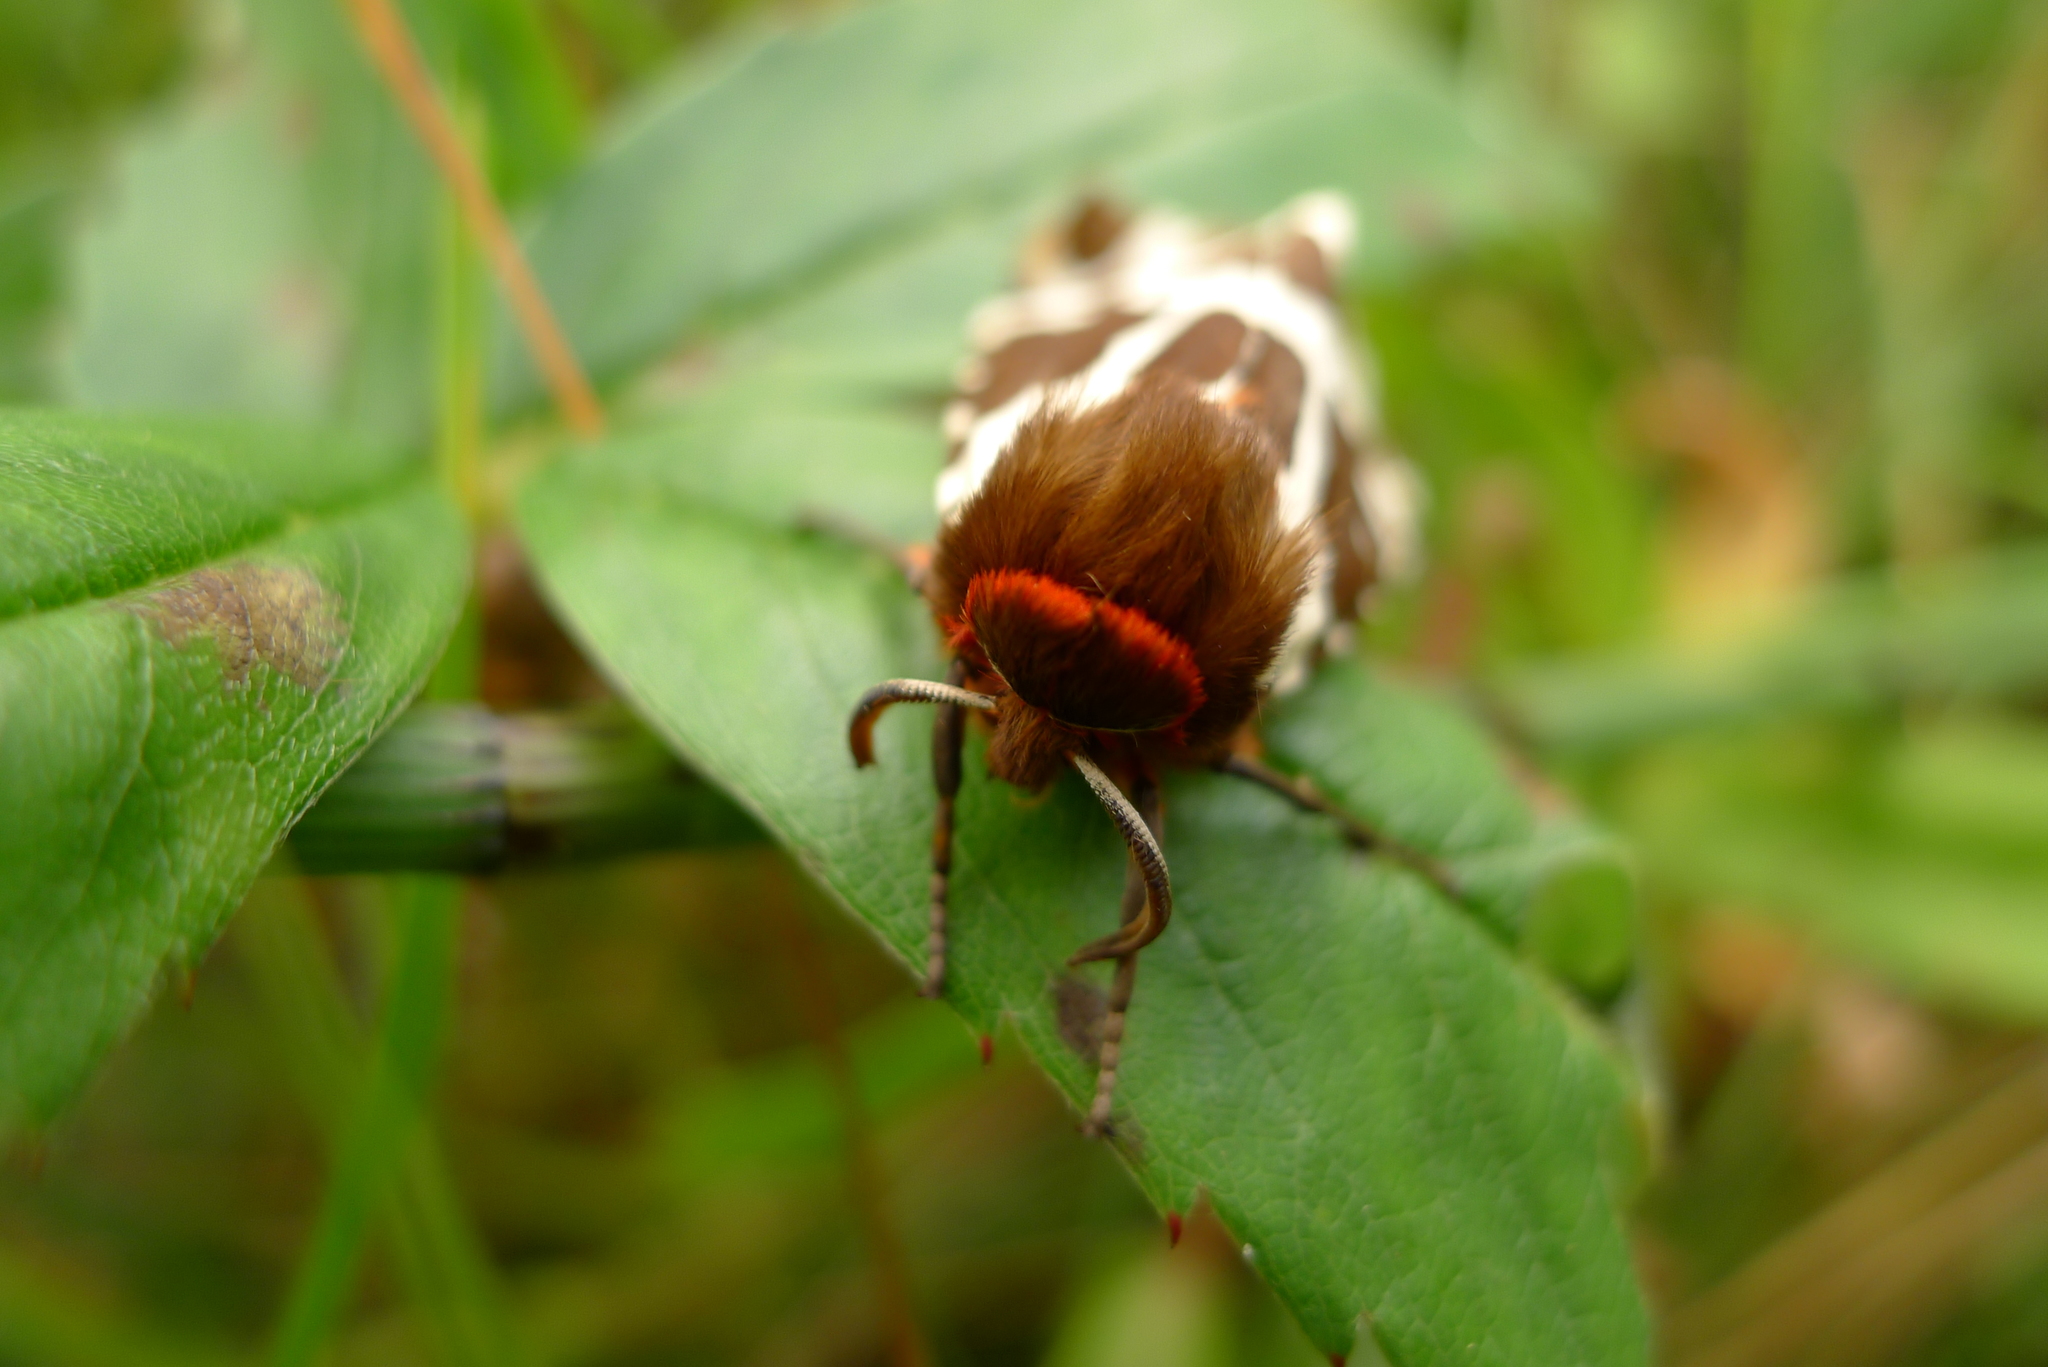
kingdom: Animalia
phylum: Arthropoda
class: Insecta
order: Lepidoptera
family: Erebidae
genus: Arctia
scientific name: Arctia caja
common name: Garden tiger
